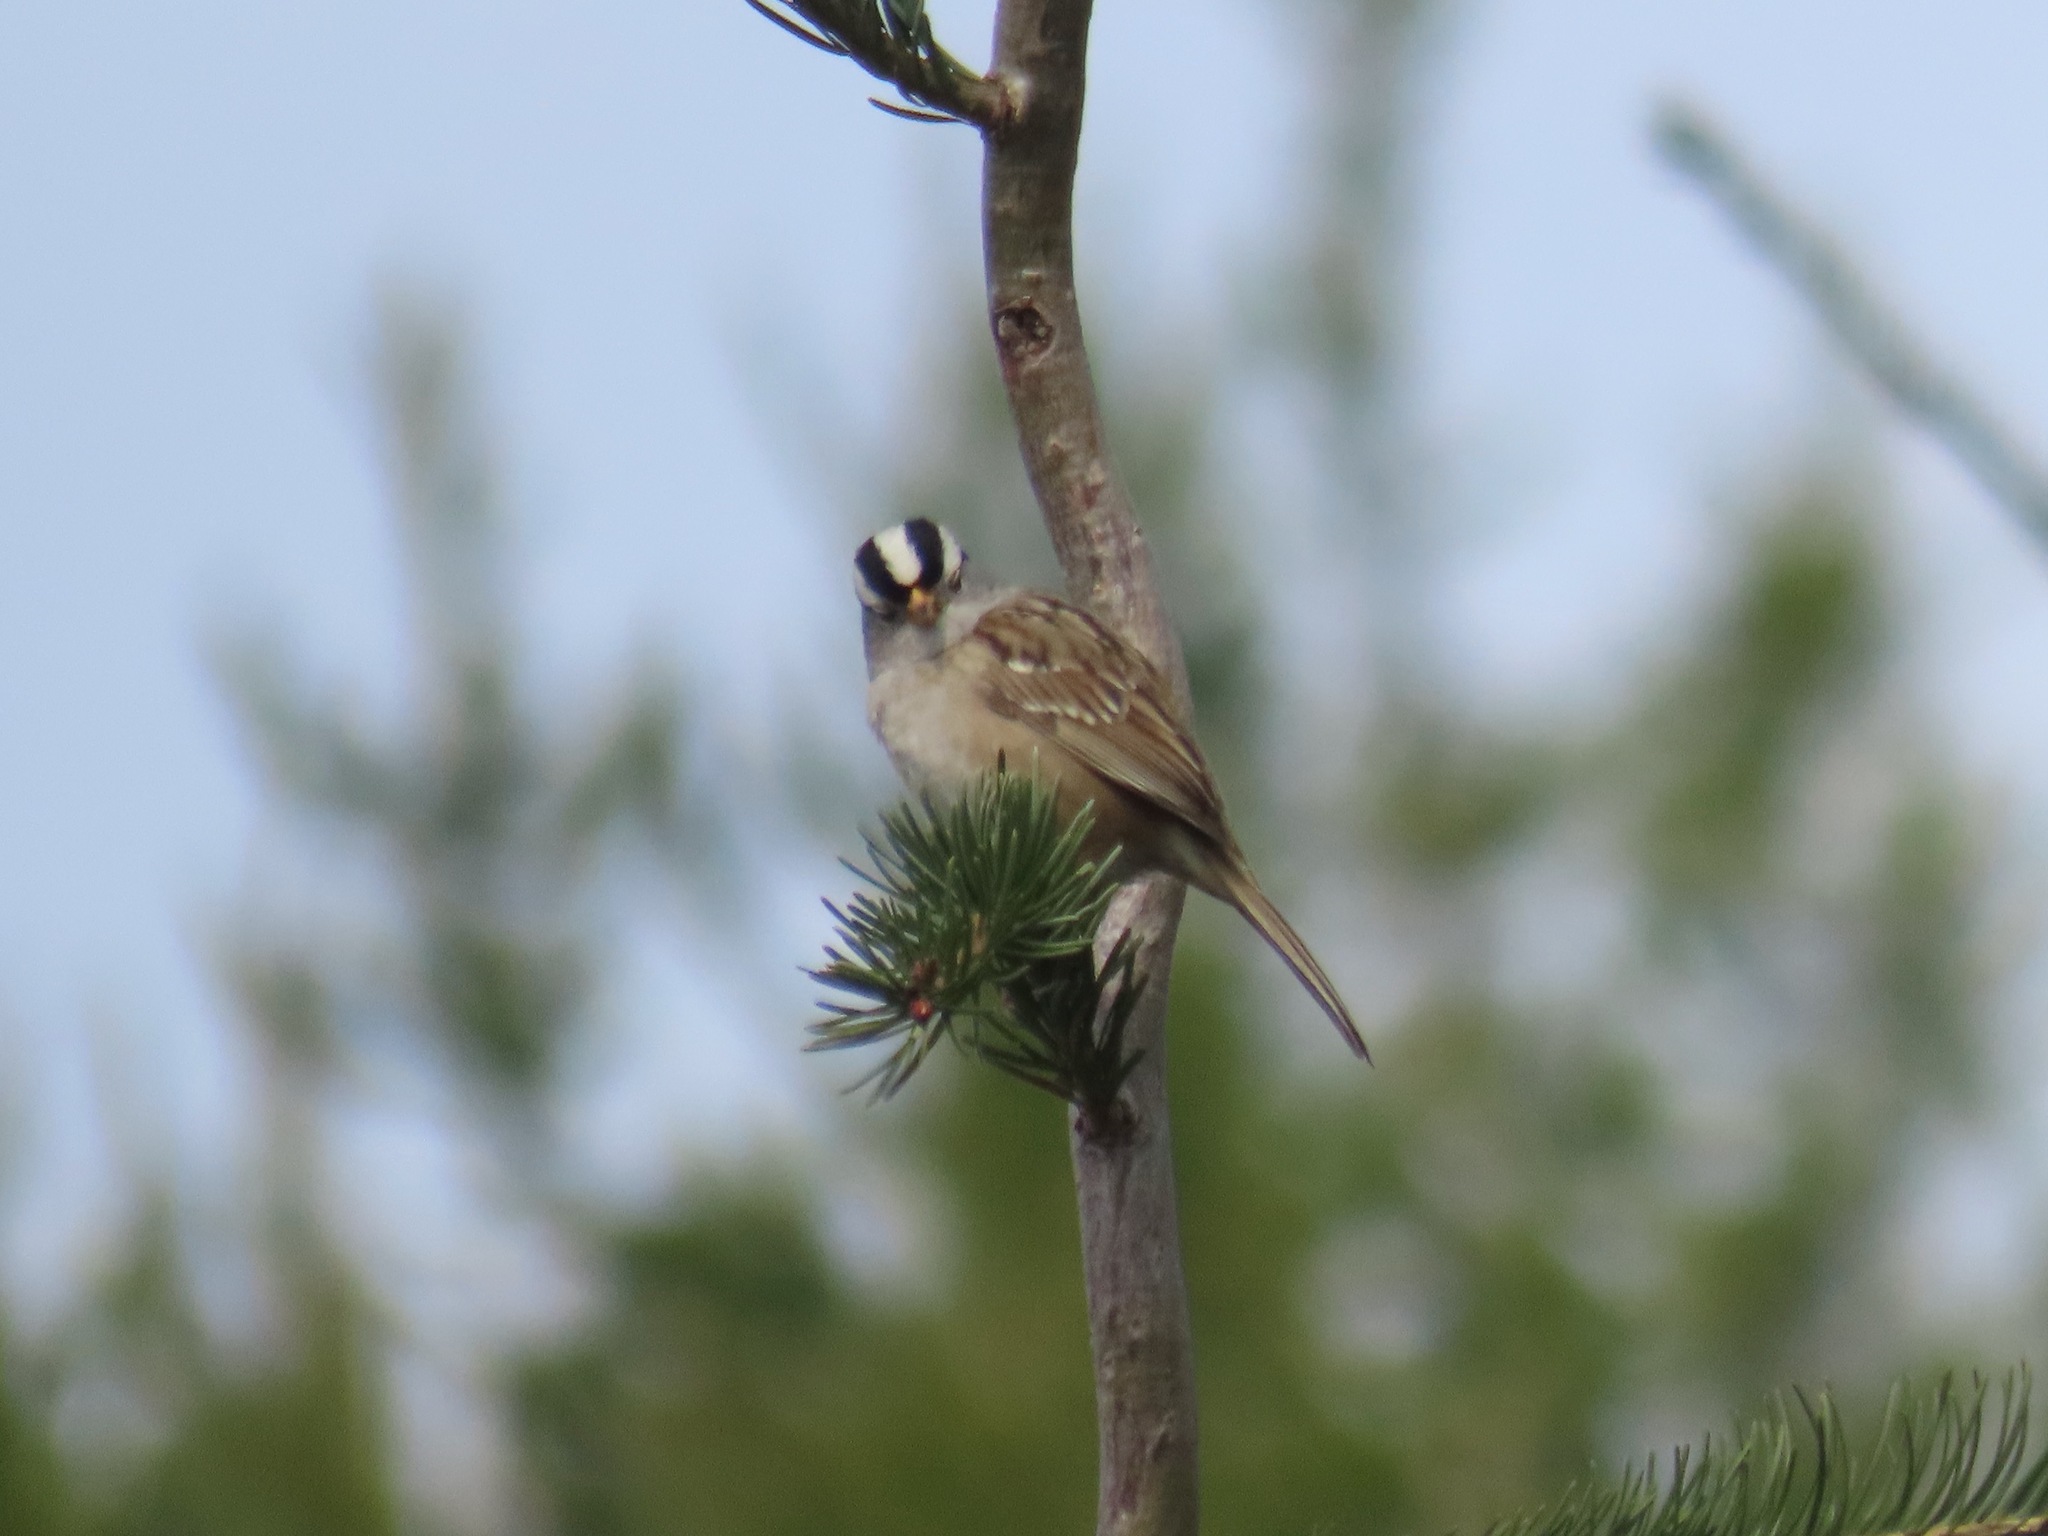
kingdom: Animalia
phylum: Chordata
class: Aves
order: Passeriformes
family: Passerellidae
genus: Zonotrichia
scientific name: Zonotrichia leucophrys
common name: White-crowned sparrow
